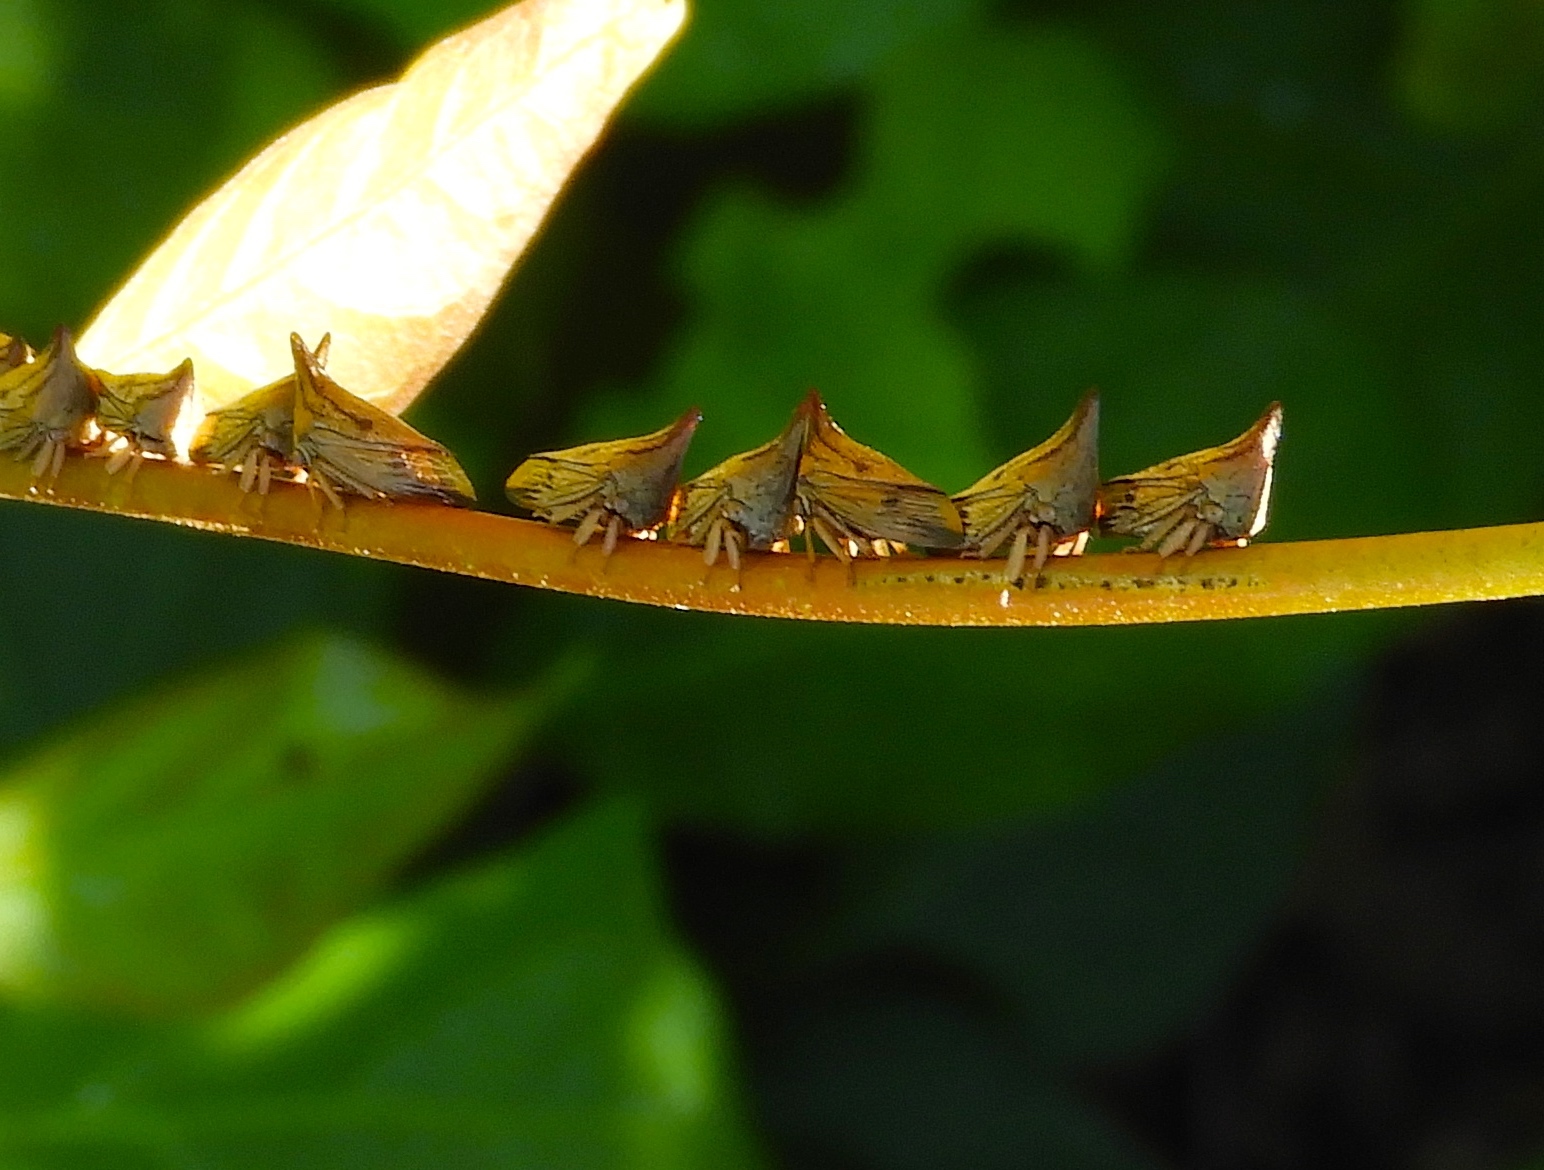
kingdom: Animalia
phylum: Arthropoda
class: Insecta
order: Hemiptera
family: Membracidae
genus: Aconophora
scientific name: Aconophora mexicana
